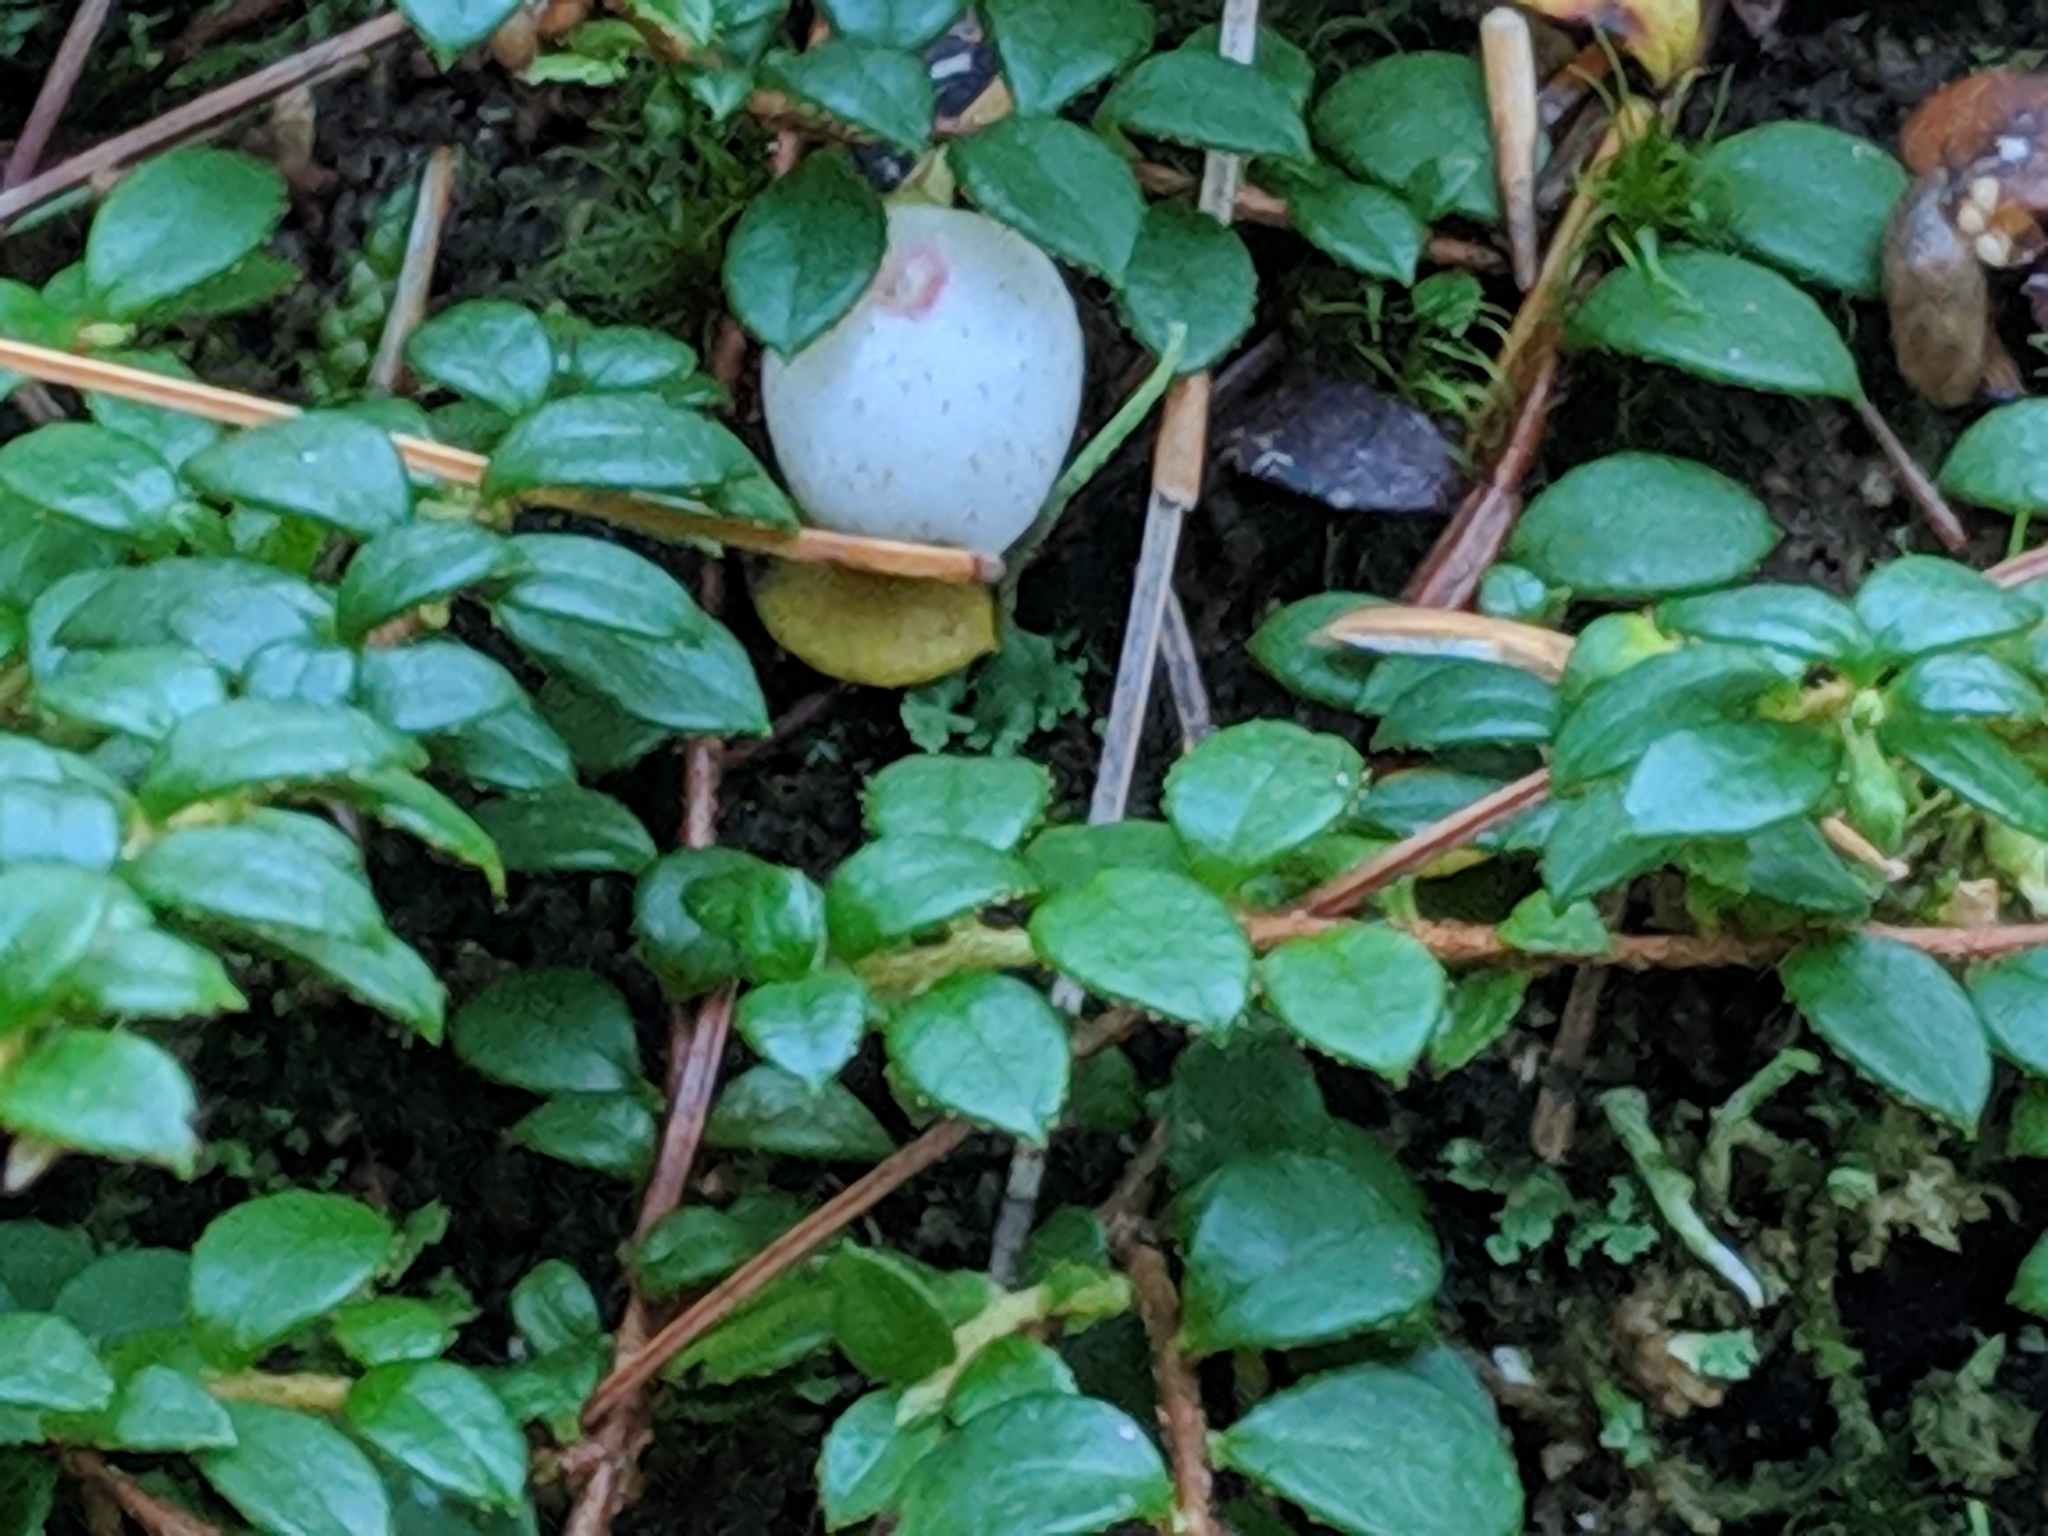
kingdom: Plantae
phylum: Tracheophyta
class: Magnoliopsida
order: Ericales
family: Ericaceae
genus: Gaultheria
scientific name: Gaultheria hispidula
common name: Cancer wintergreen
